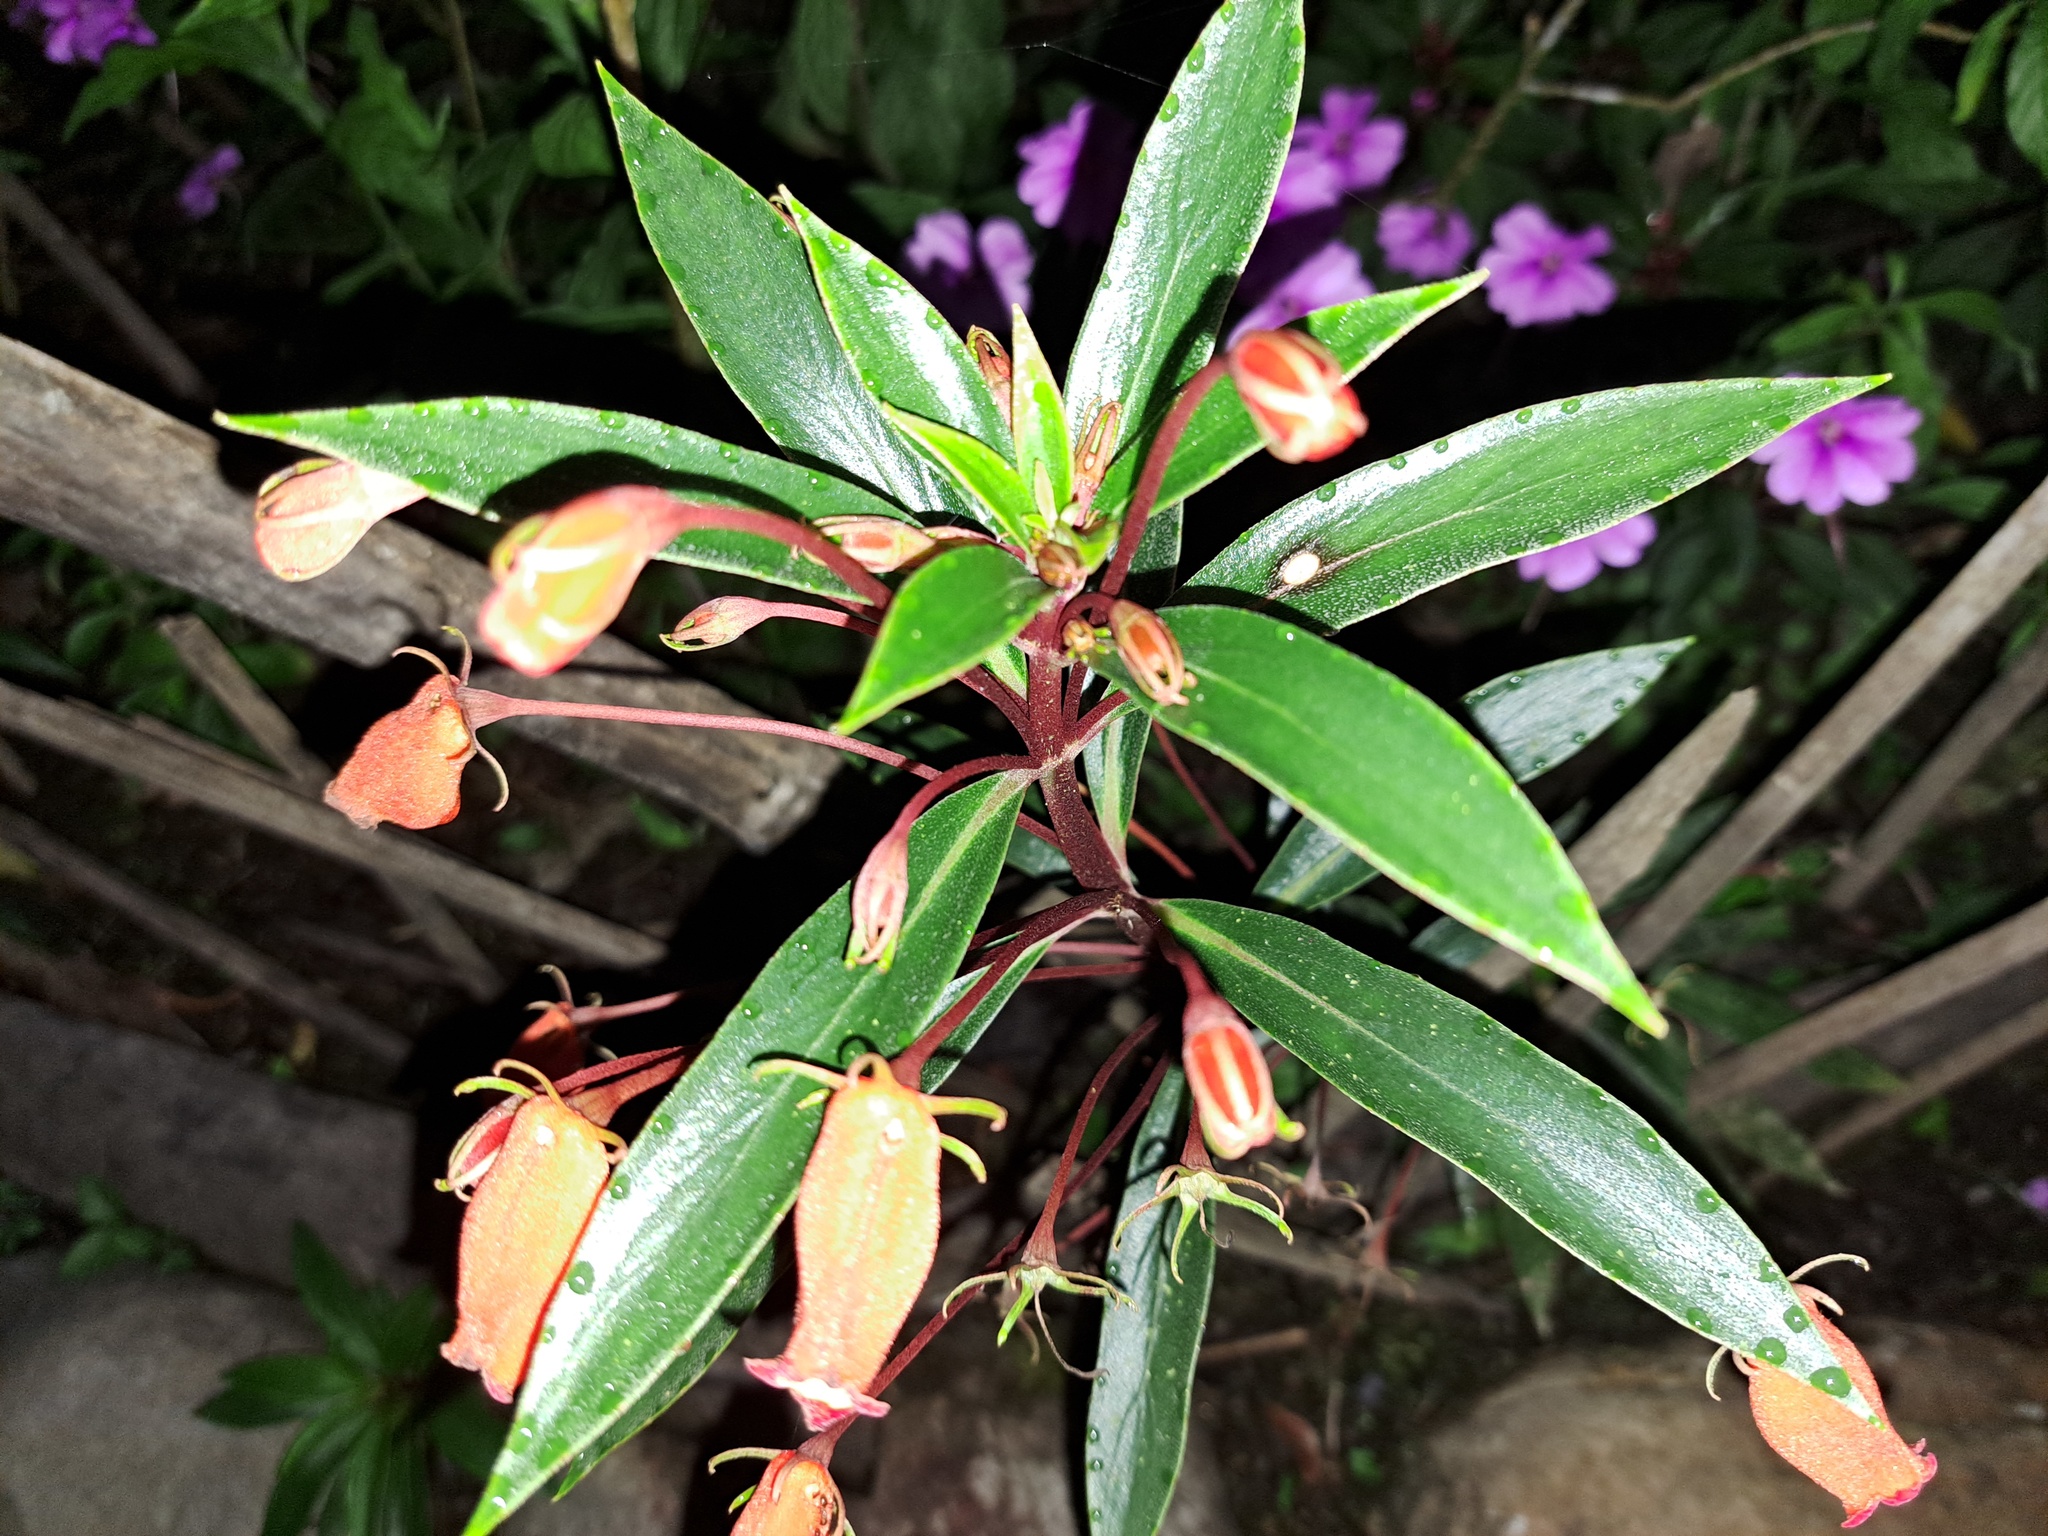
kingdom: Plantae
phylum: Tracheophyta
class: Magnoliopsida
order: Lamiales
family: Gesneriaceae
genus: Seemannia
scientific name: Seemannia sylvatica
